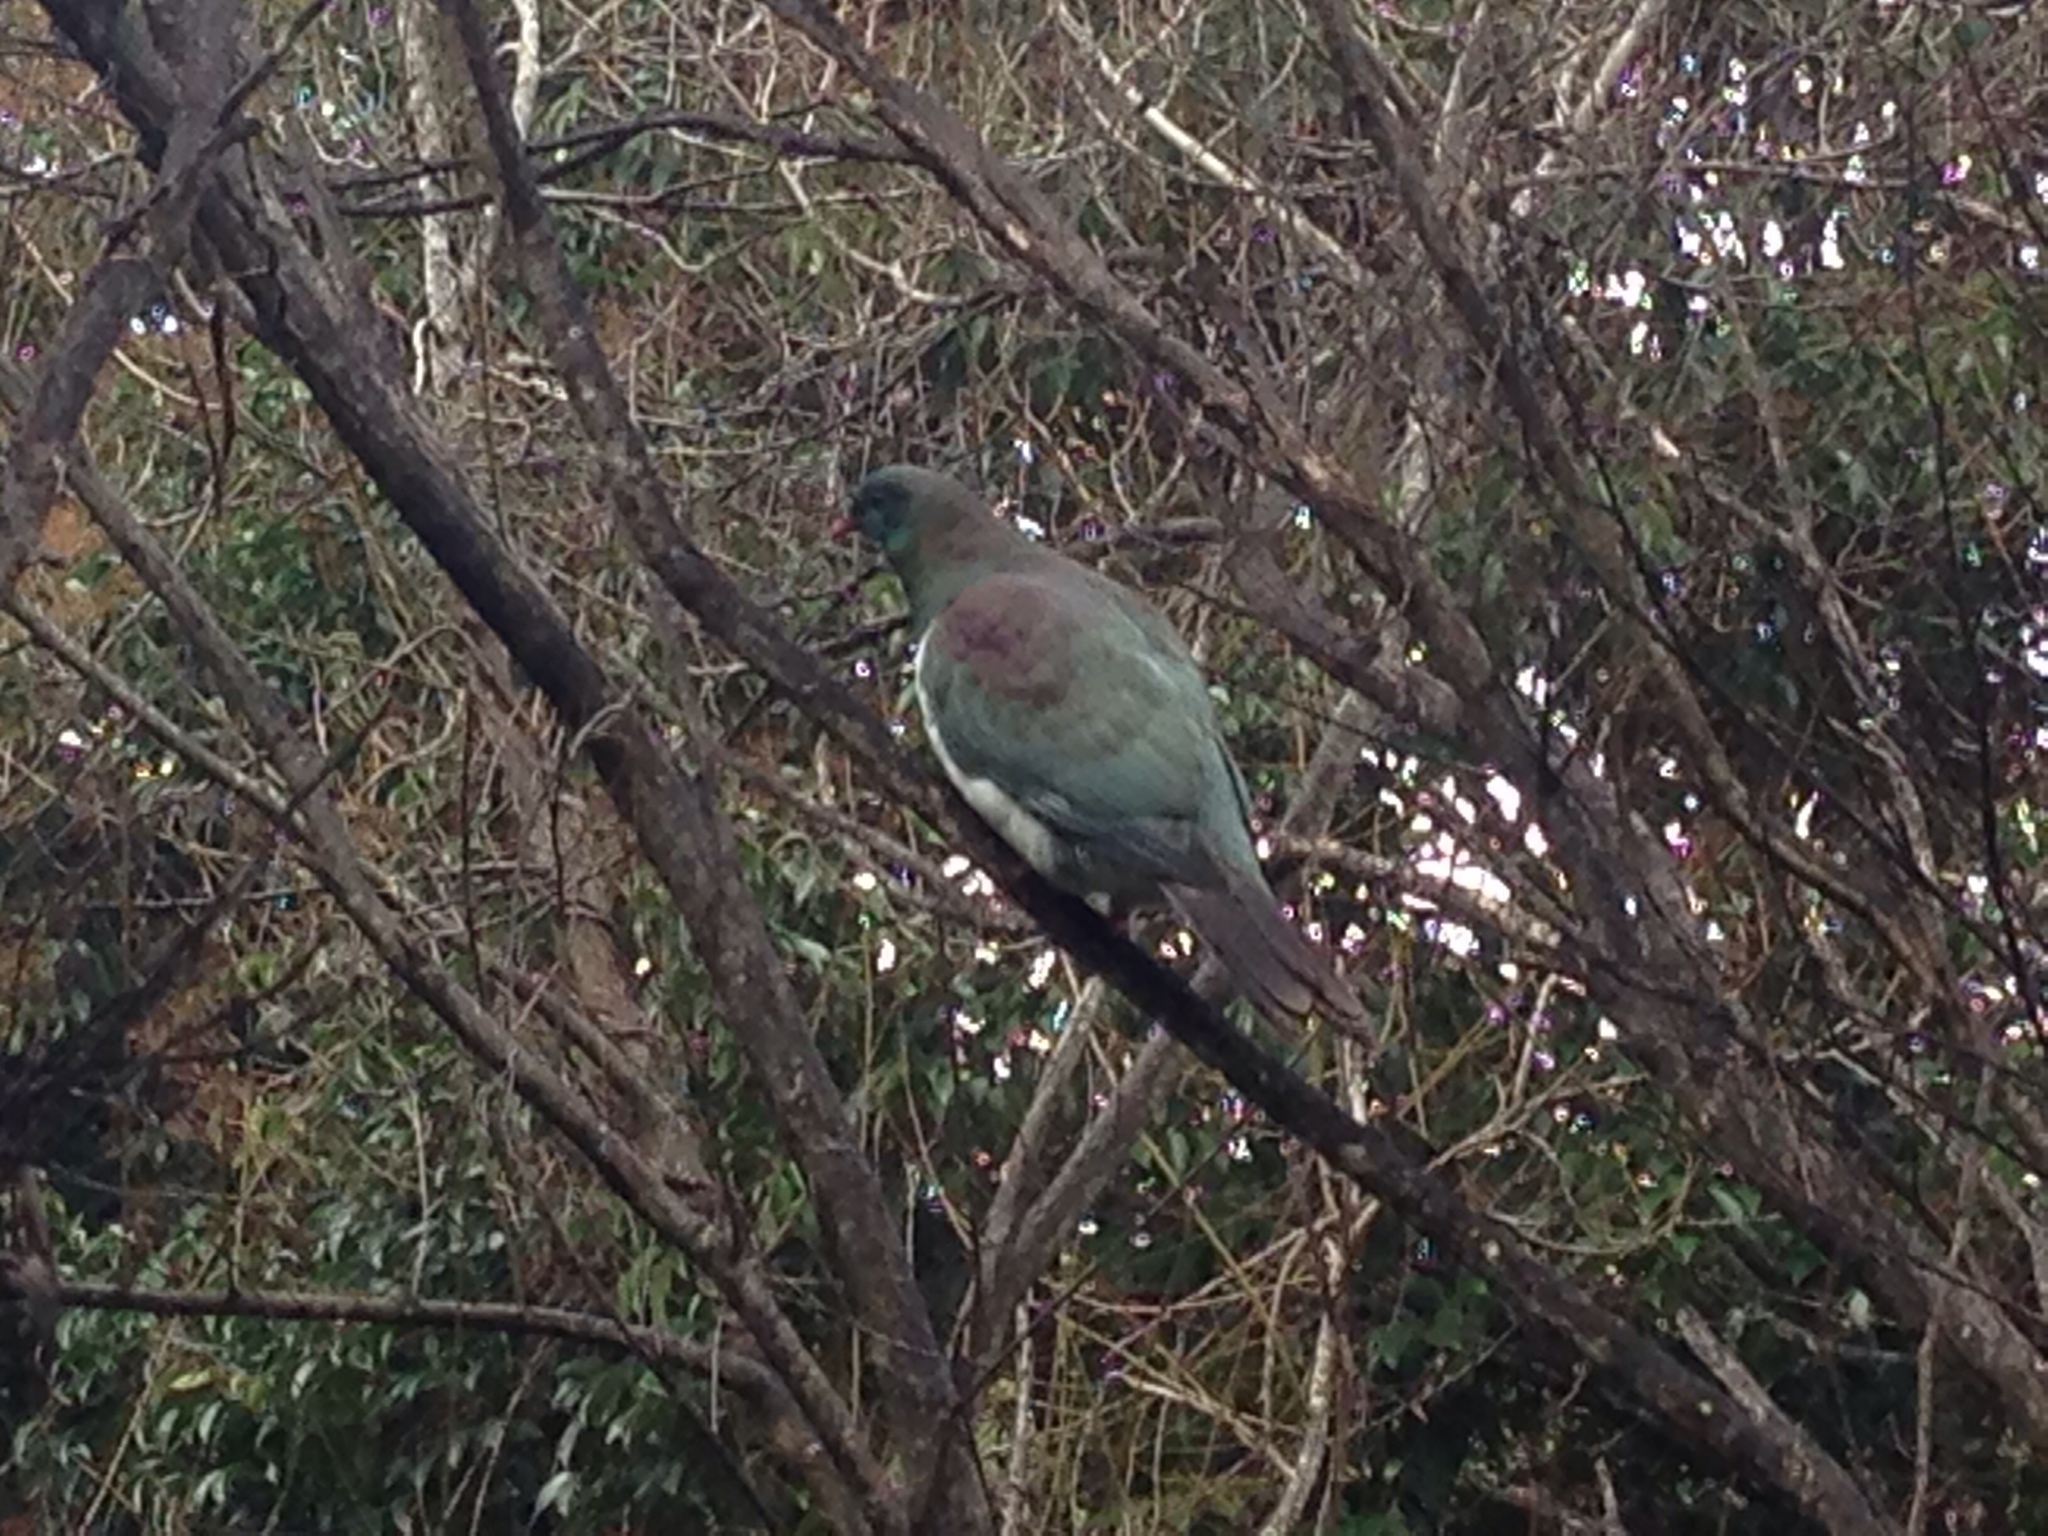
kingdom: Animalia
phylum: Chordata
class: Aves
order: Columbiformes
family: Columbidae
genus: Hemiphaga
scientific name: Hemiphaga novaeseelandiae
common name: New zealand pigeon
